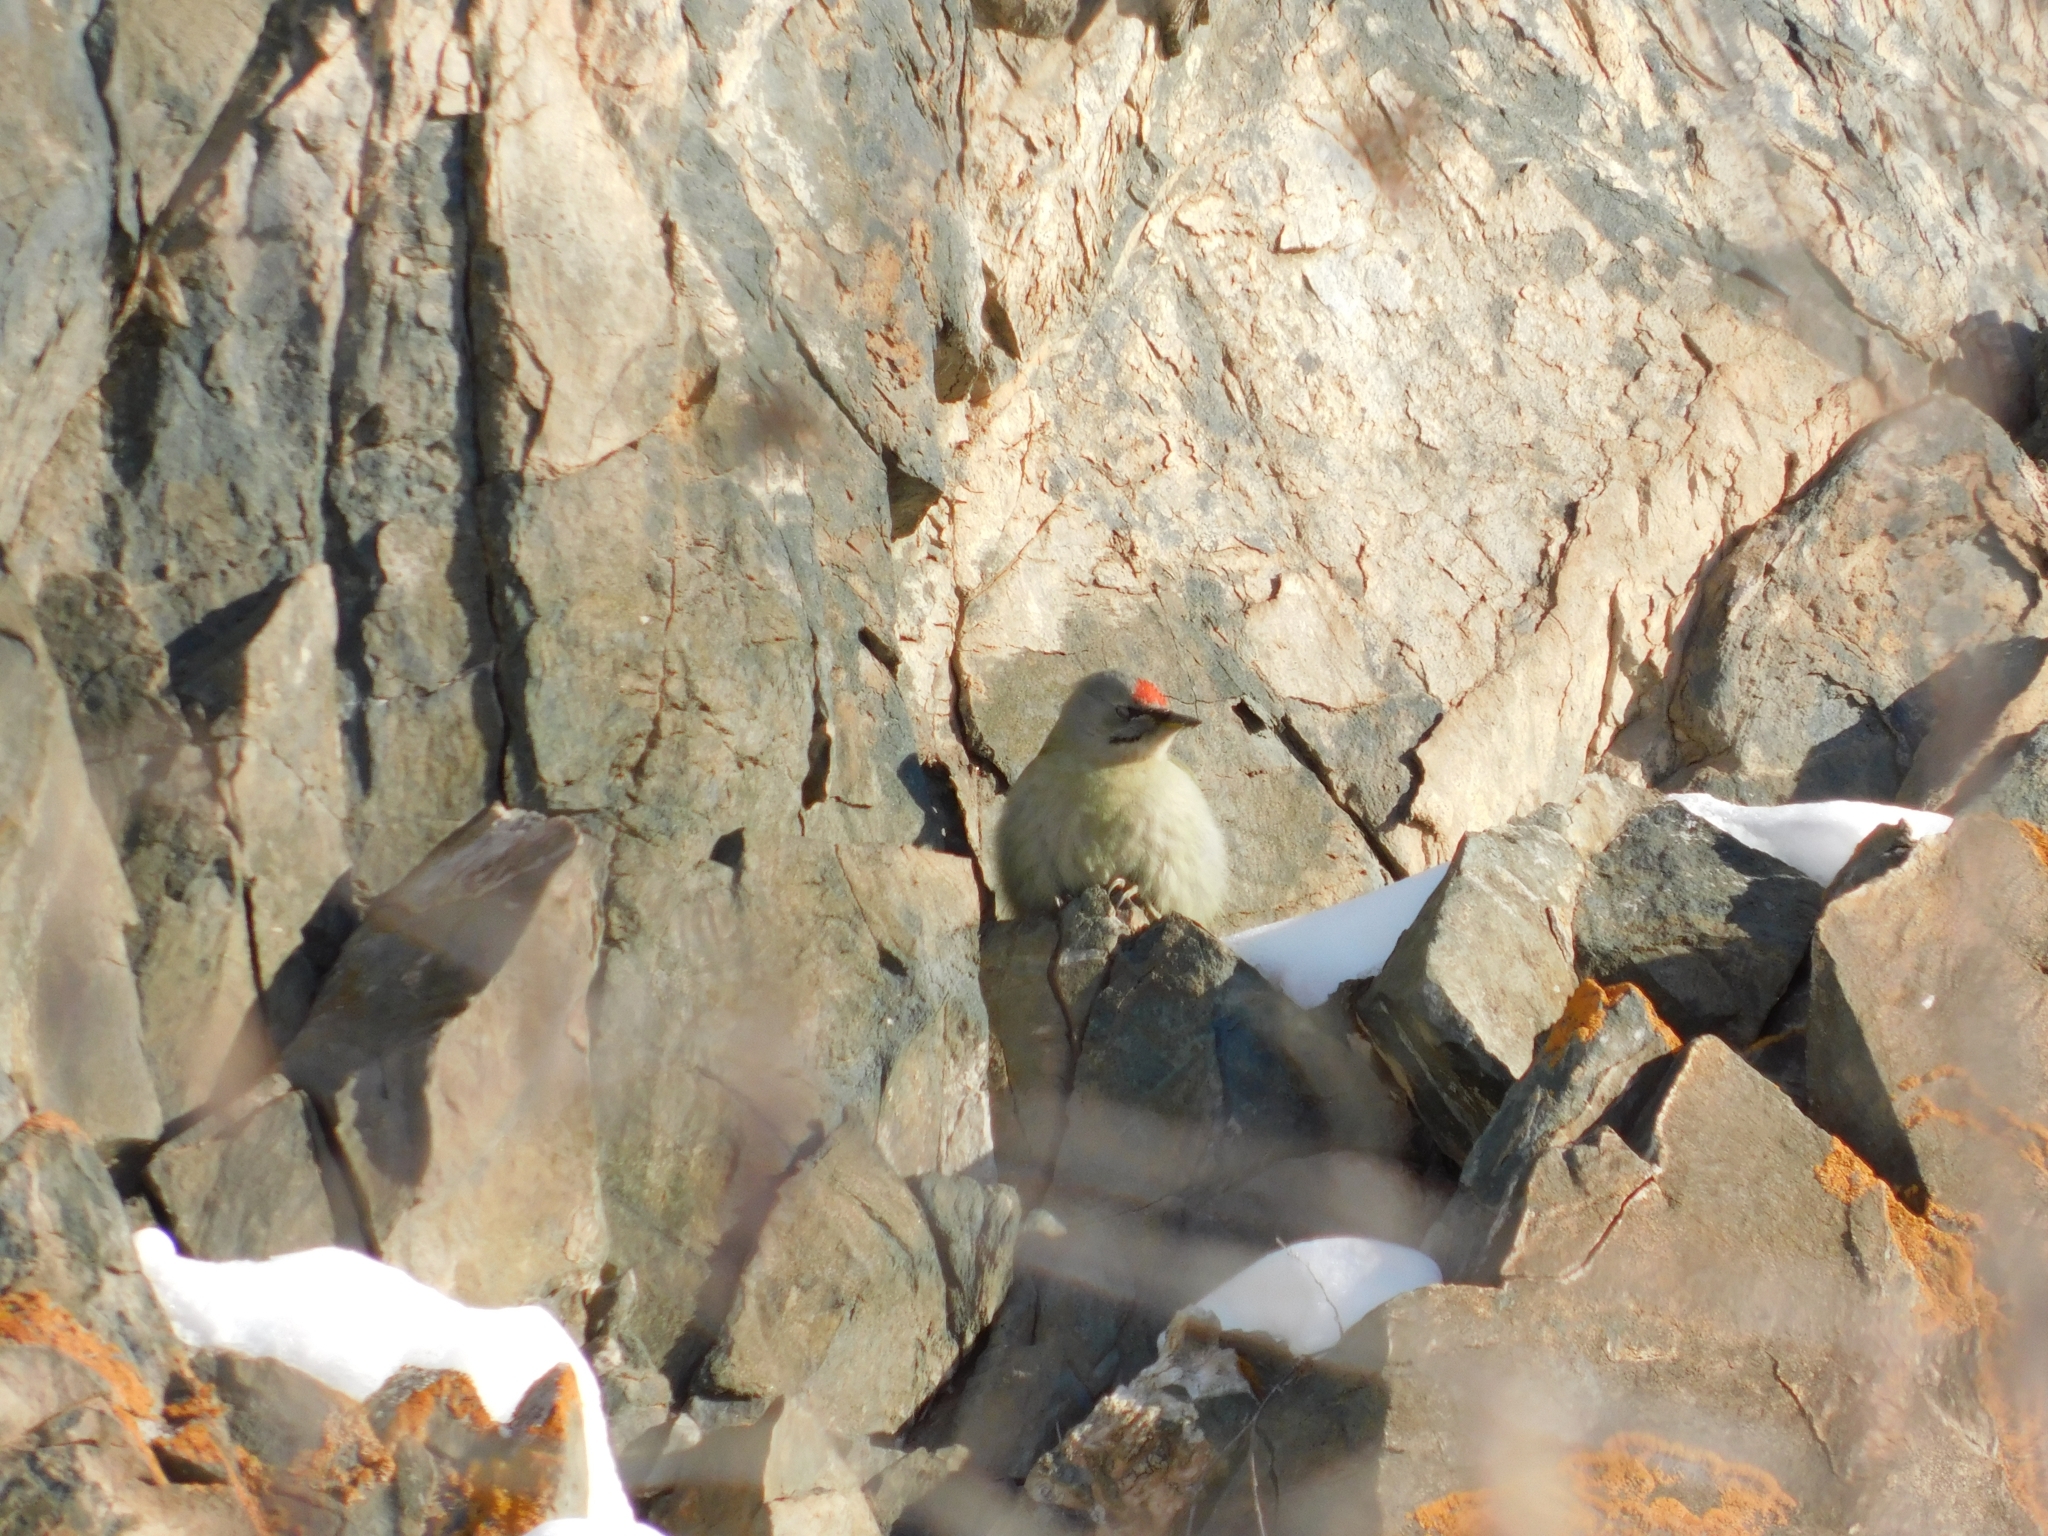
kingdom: Animalia
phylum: Chordata
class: Aves
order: Piciformes
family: Picidae
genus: Picus
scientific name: Picus canus
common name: Grey-headed woodpecker
